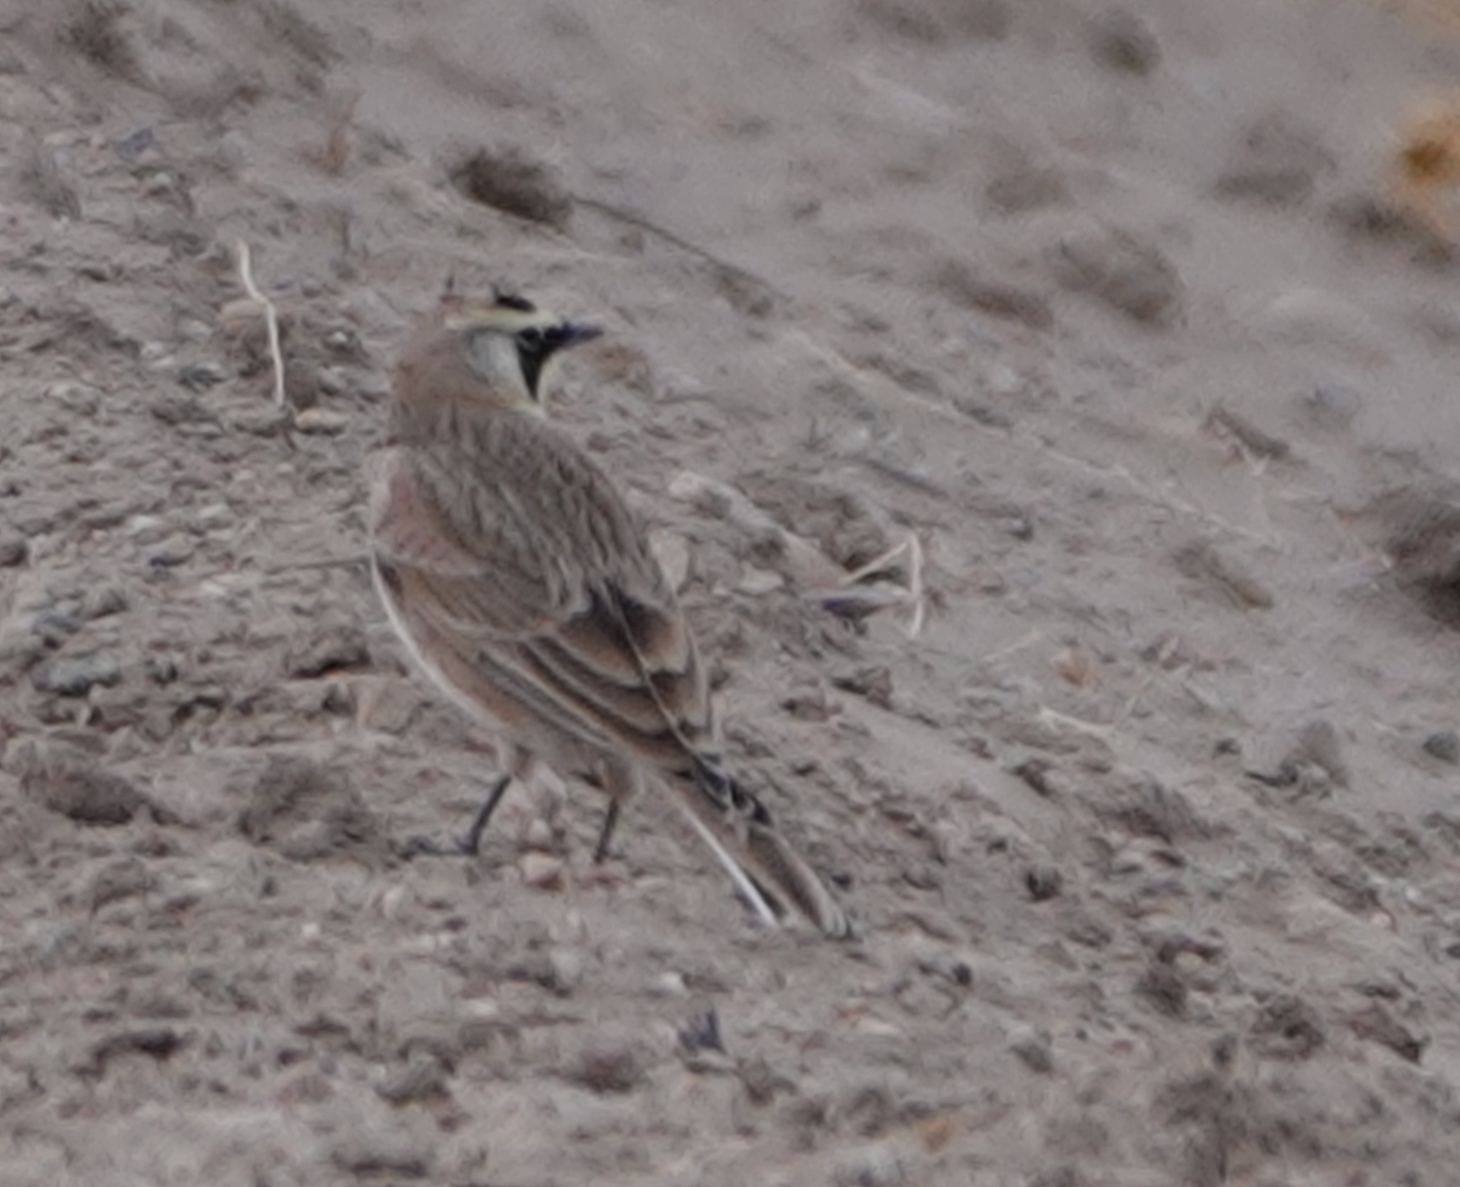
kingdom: Animalia
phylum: Chordata
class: Aves
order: Passeriformes
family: Alaudidae
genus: Eremophila
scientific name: Eremophila alpestris
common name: Horned lark
